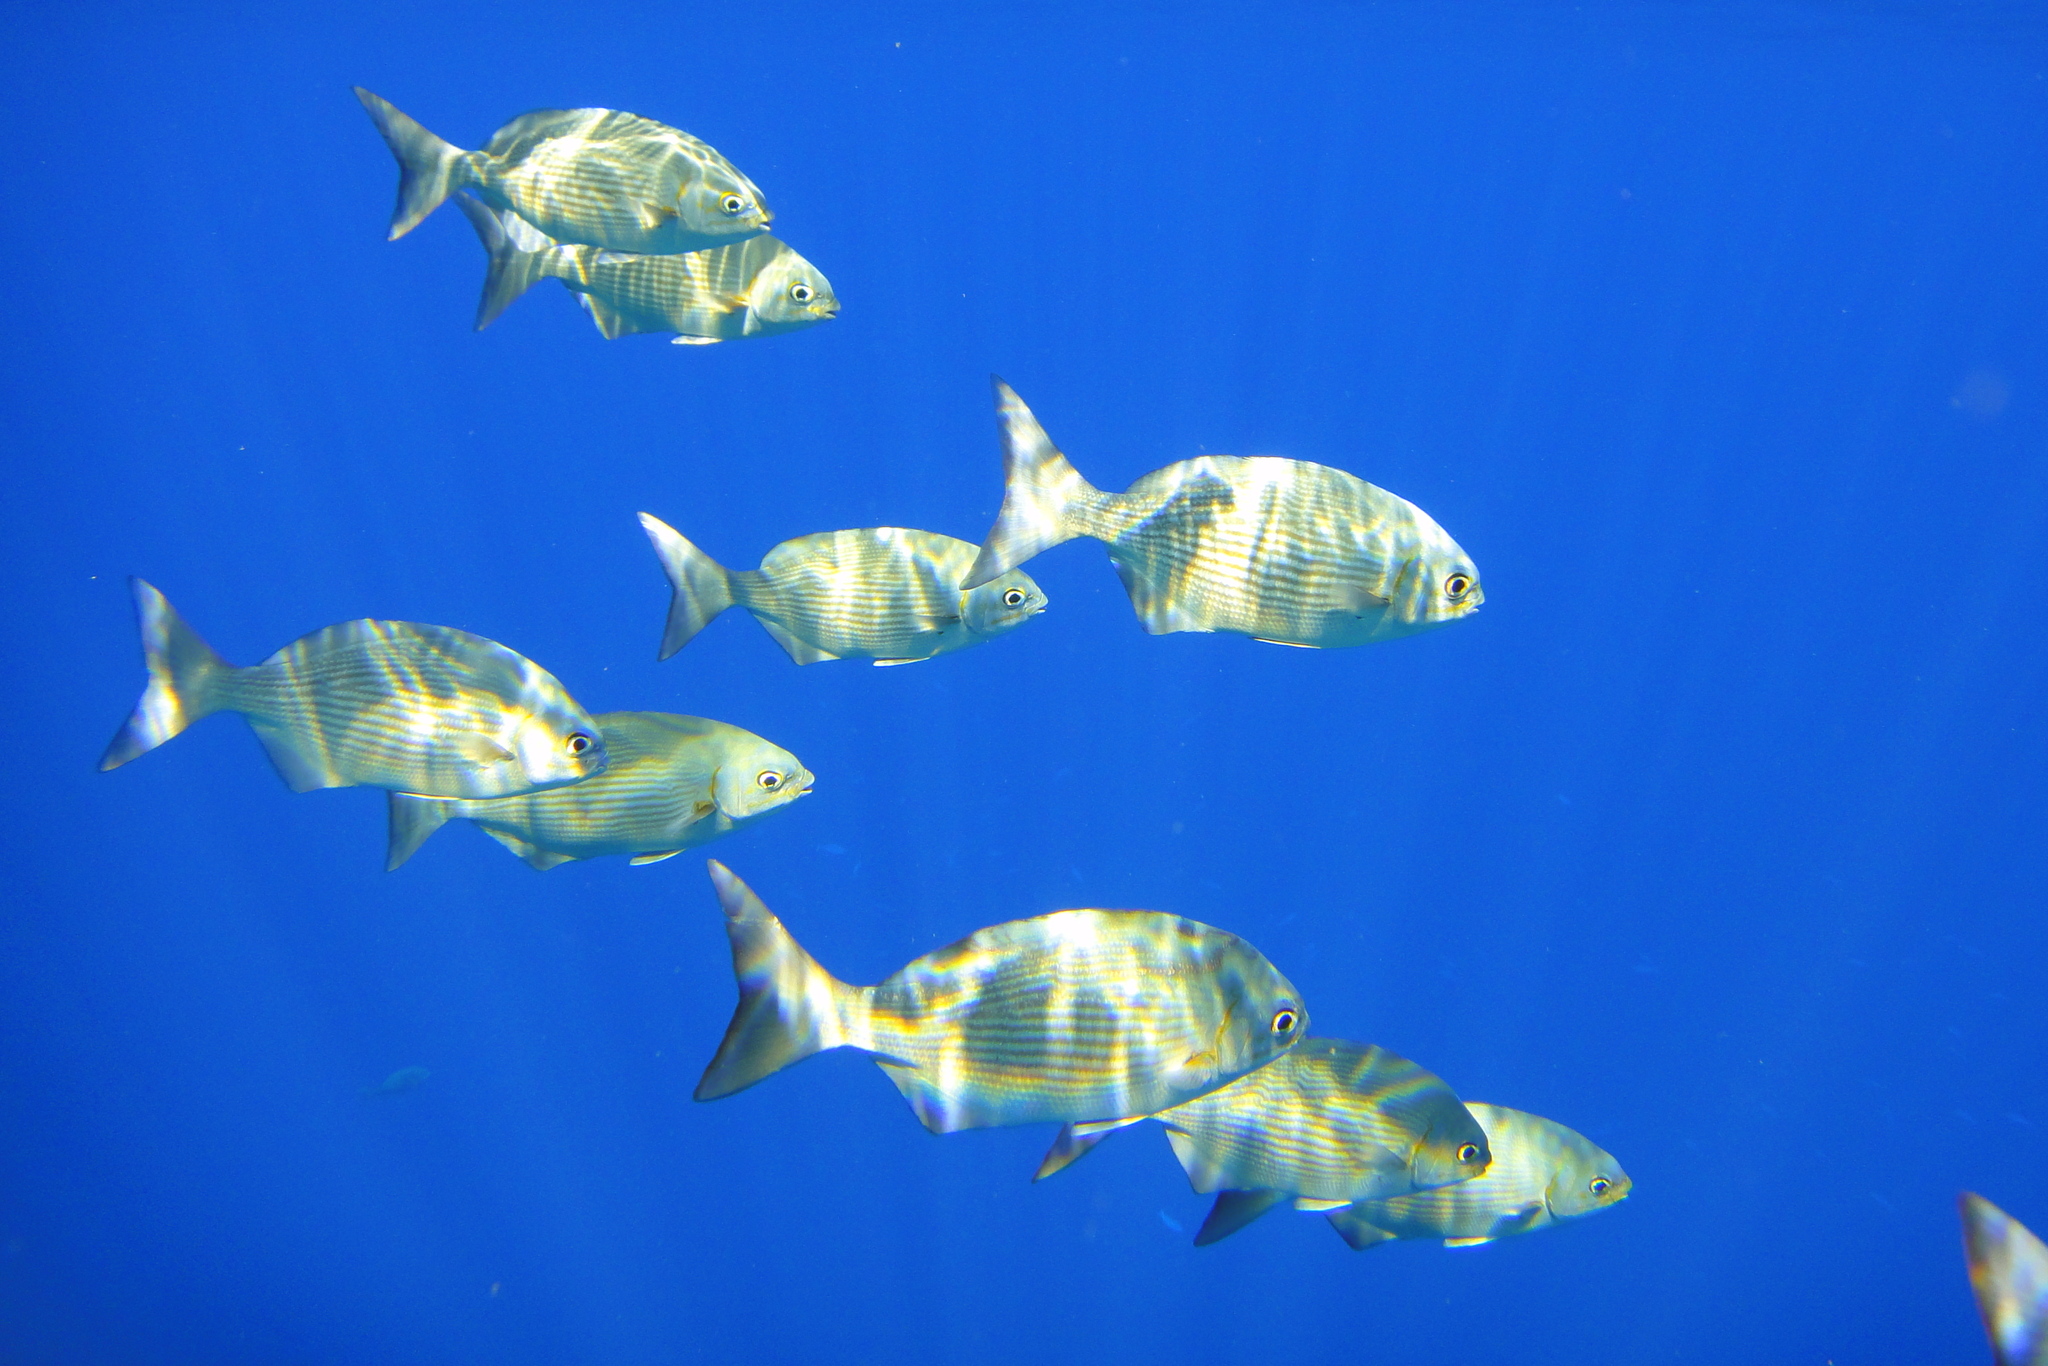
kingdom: Animalia
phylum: Chordata
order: Perciformes
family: Kyphosidae
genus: Kyphosus
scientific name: Kyphosus vaigiensis
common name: Brassy chub
